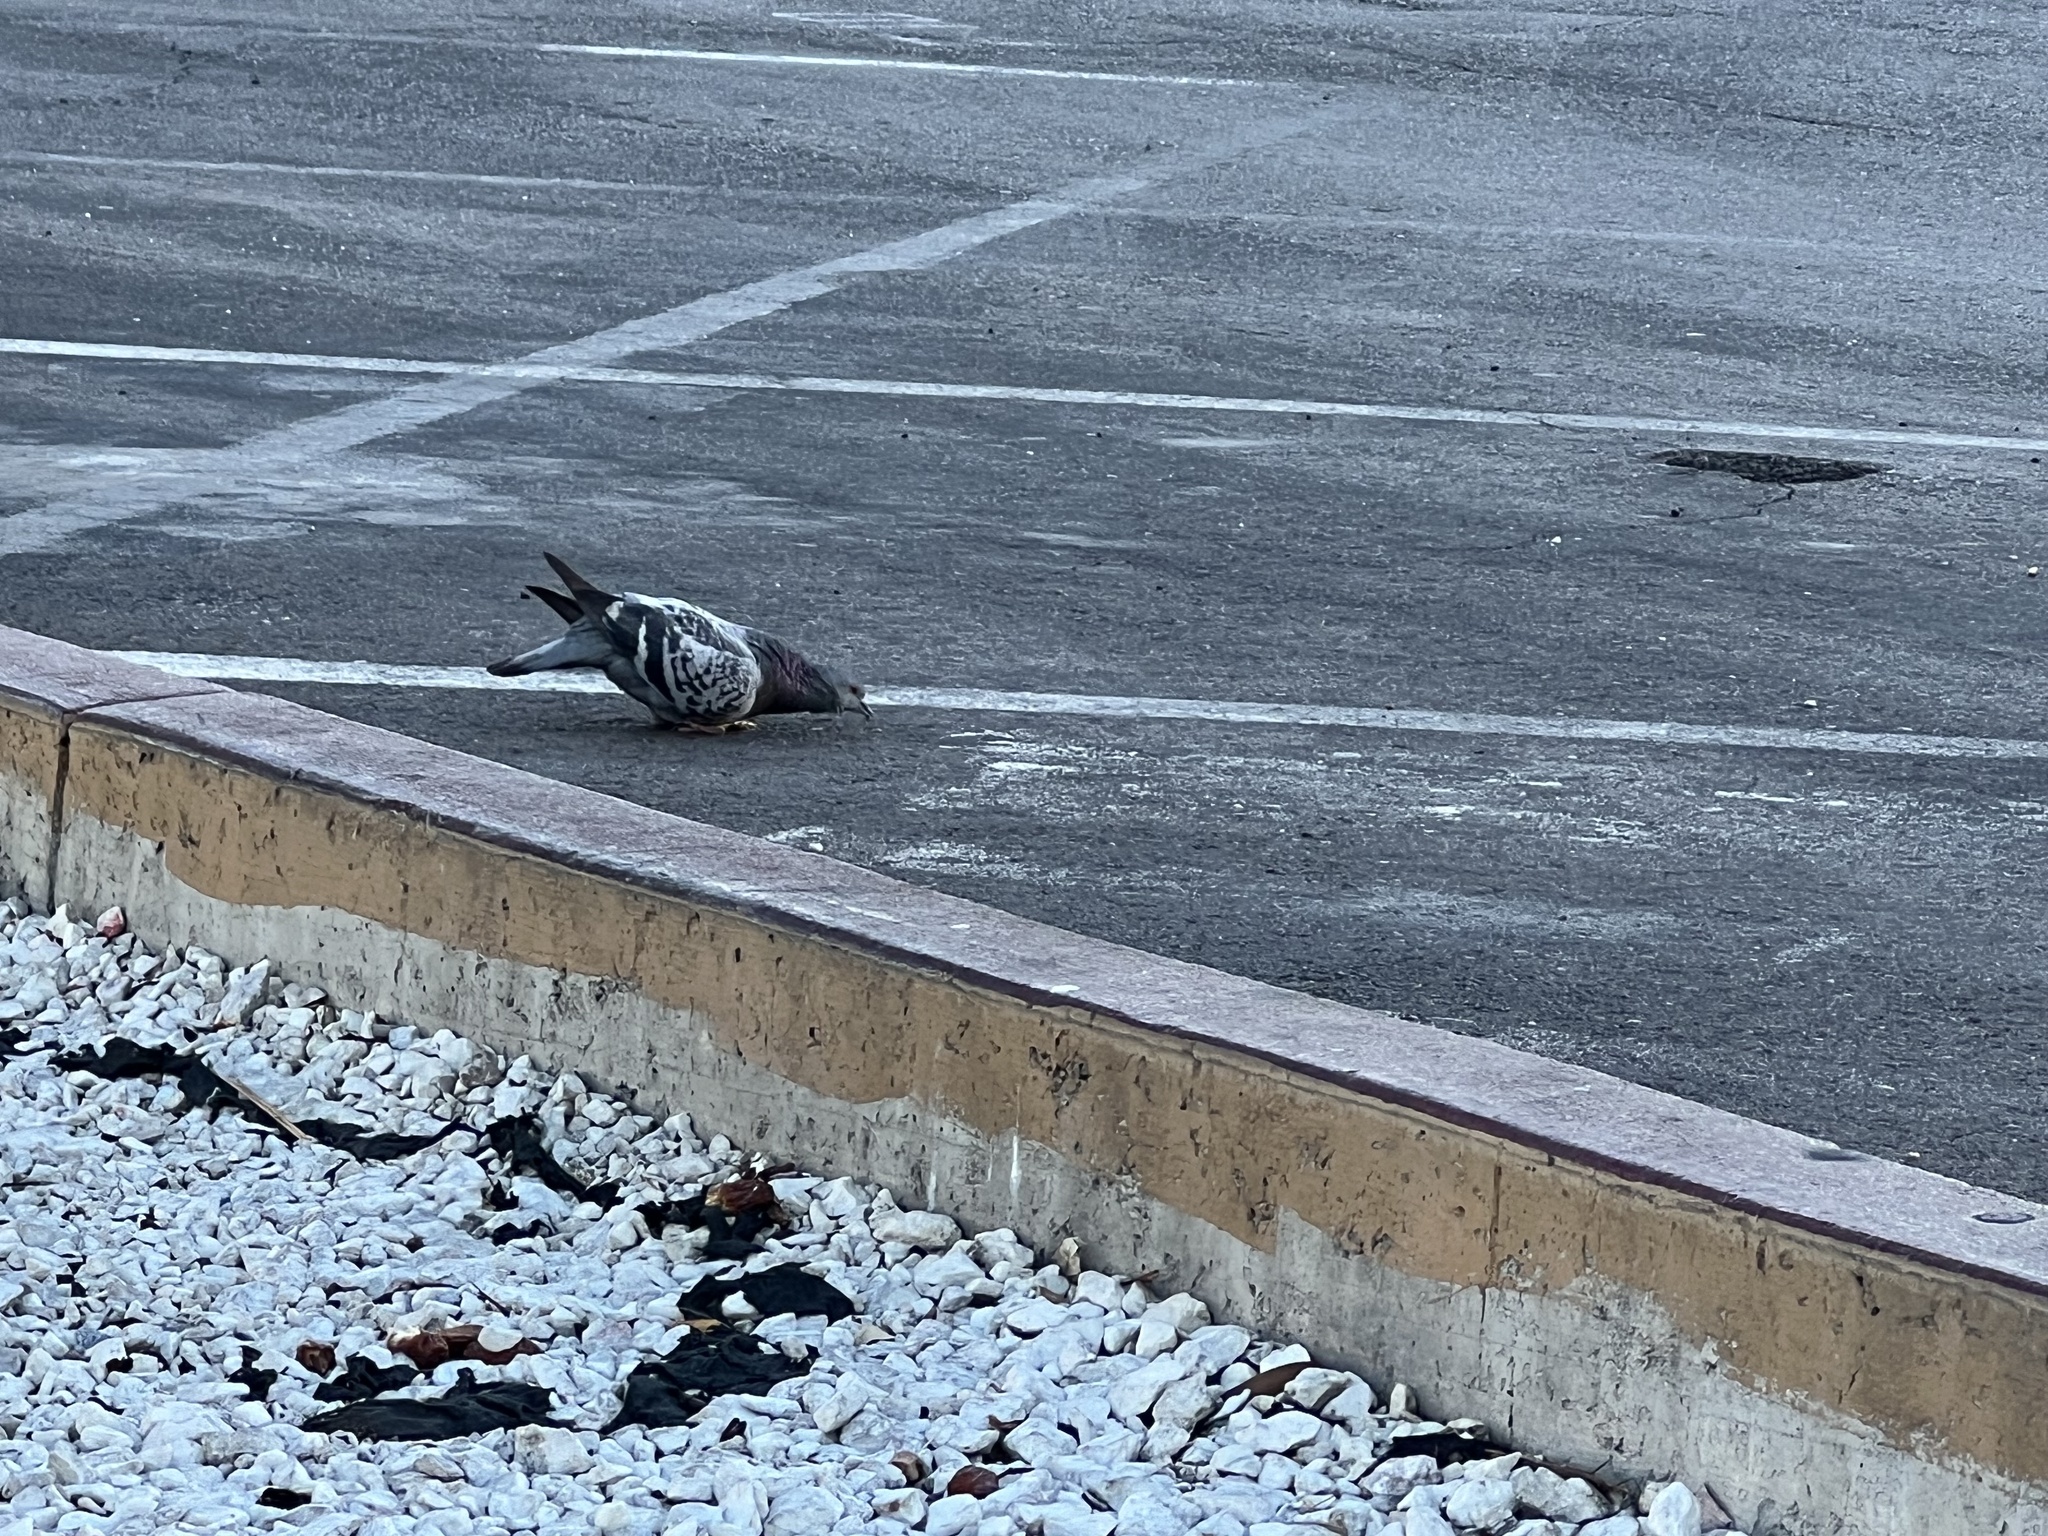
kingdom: Animalia
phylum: Chordata
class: Aves
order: Columbiformes
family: Columbidae
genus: Columba
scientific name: Columba livia
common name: Rock pigeon
